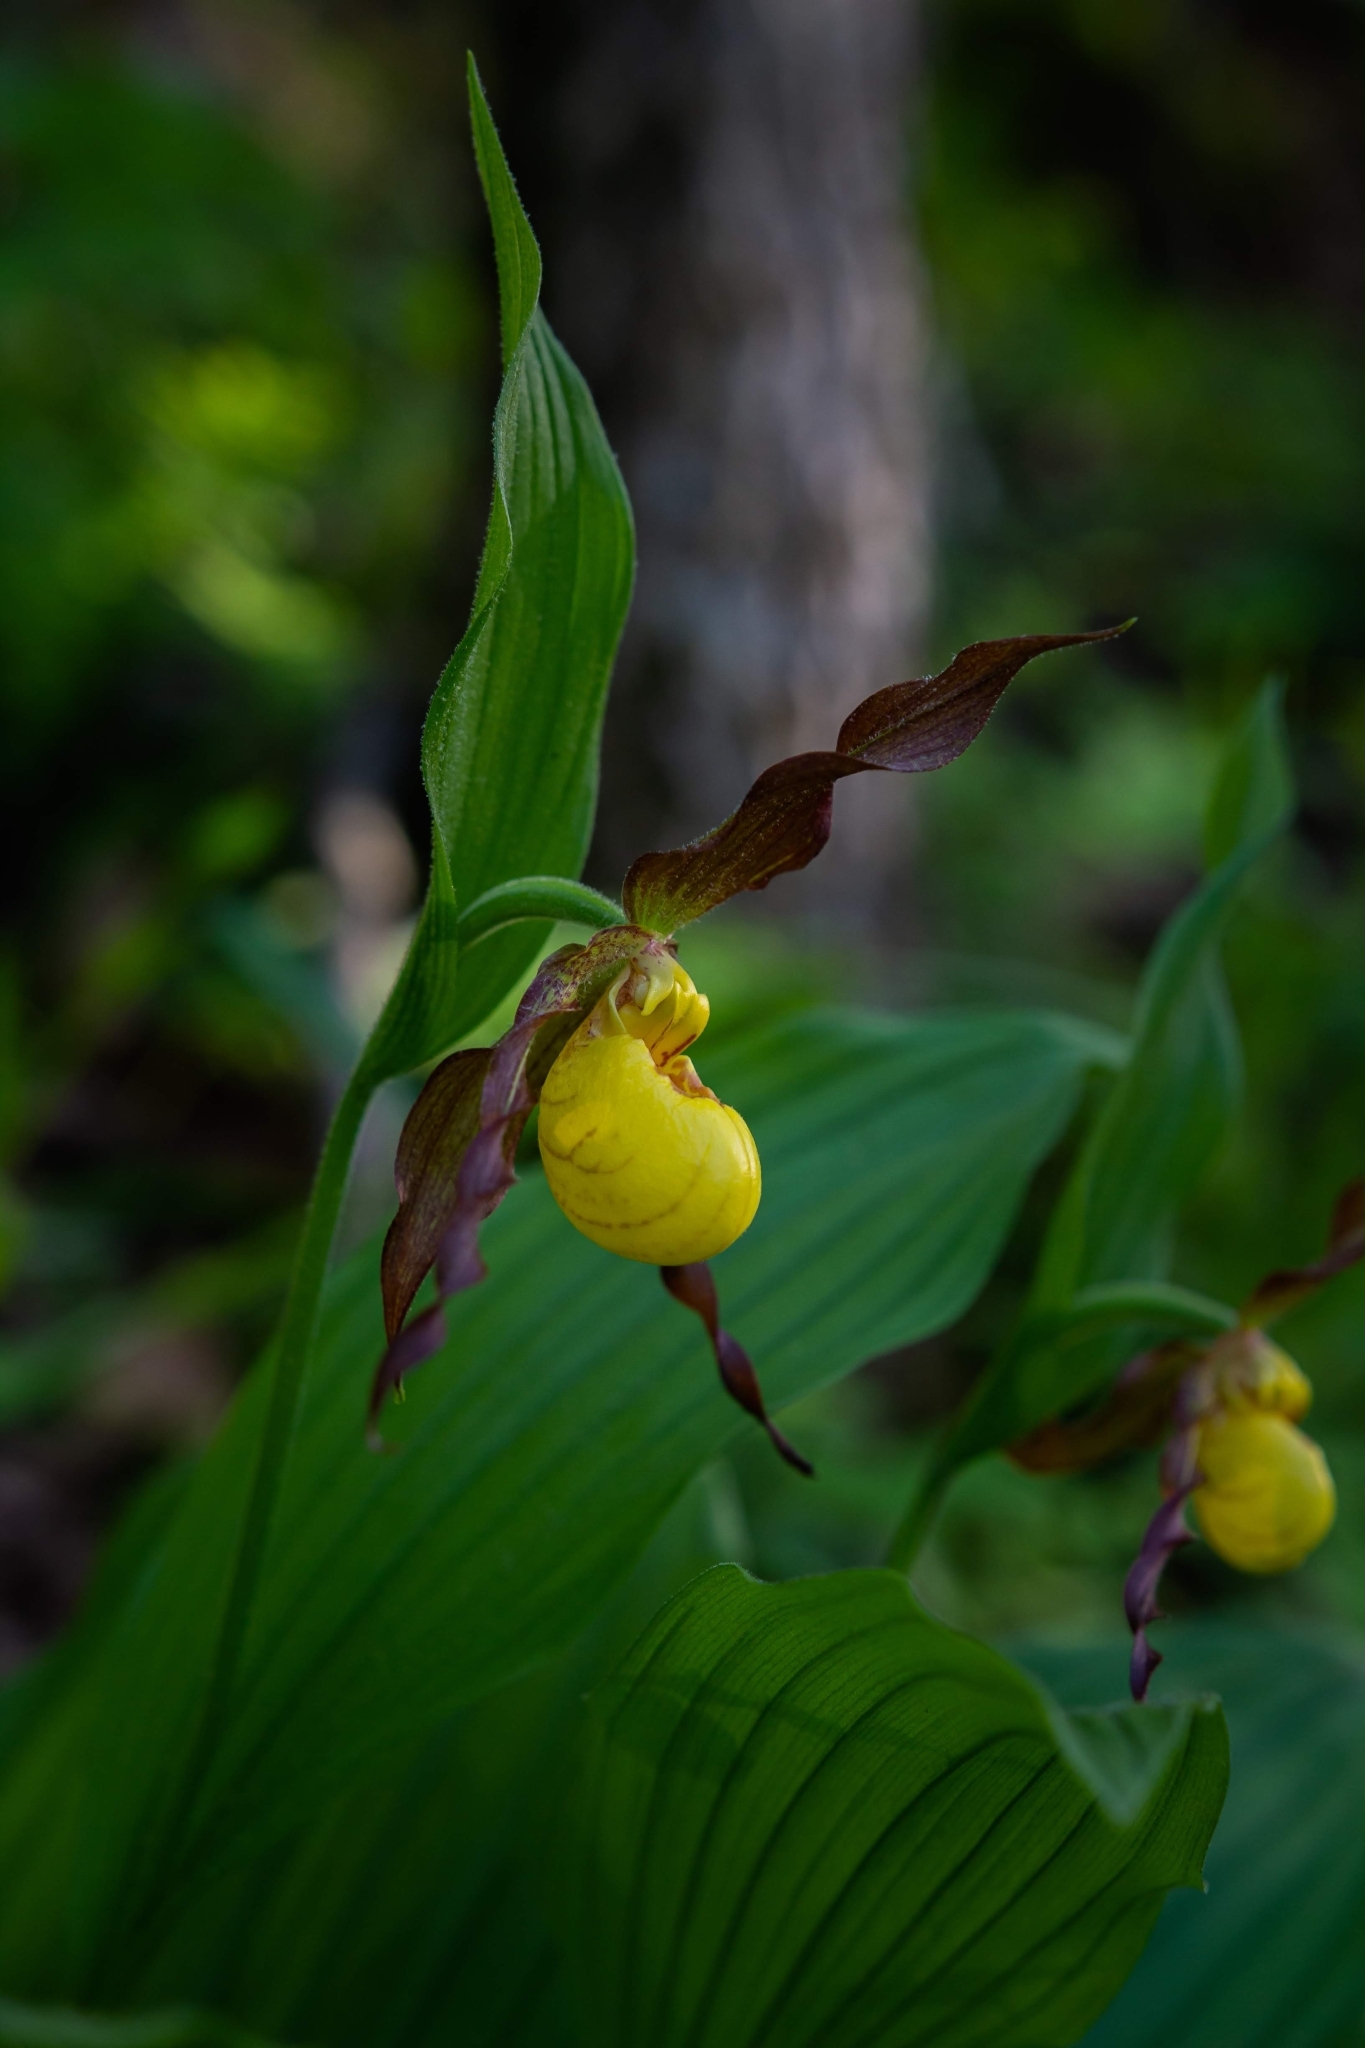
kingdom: Plantae
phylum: Tracheophyta
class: Liliopsida
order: Asparagales
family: Orchidaceae
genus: Cypripedium
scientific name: Cypripedium parviflorum
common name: American yellow lady's-slipper
